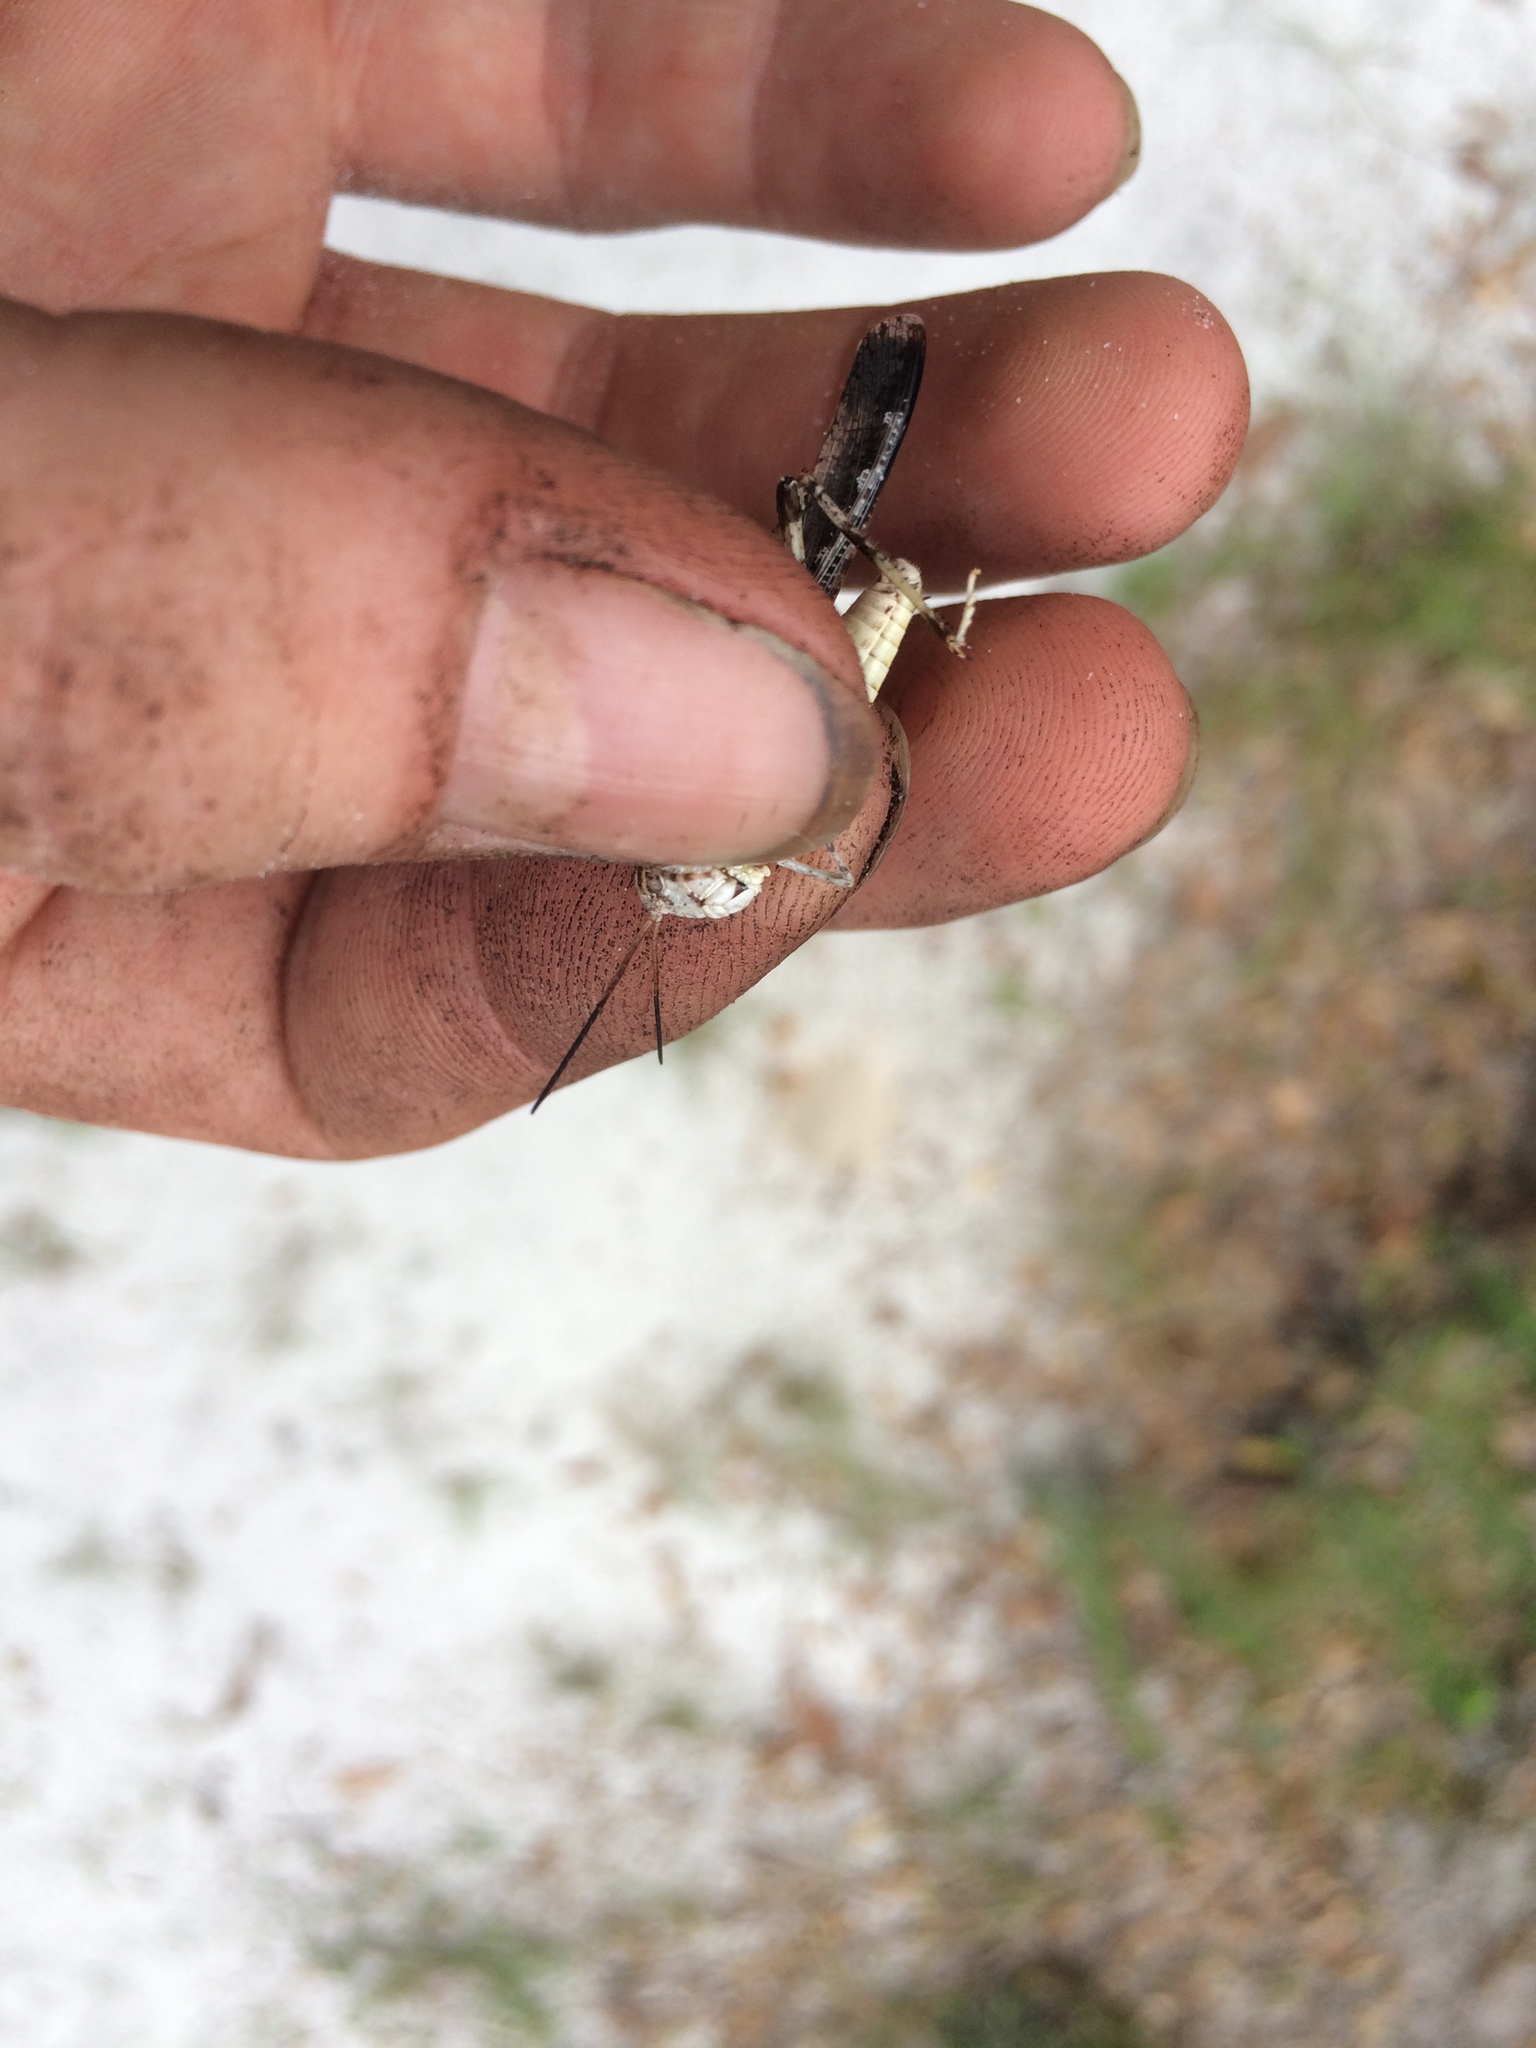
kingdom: Animalia
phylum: Arthropoda
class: Insecta
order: Orthoptera
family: Acrididae
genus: Psinidia
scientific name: Psinidia fenestralis
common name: Long-horned locust
